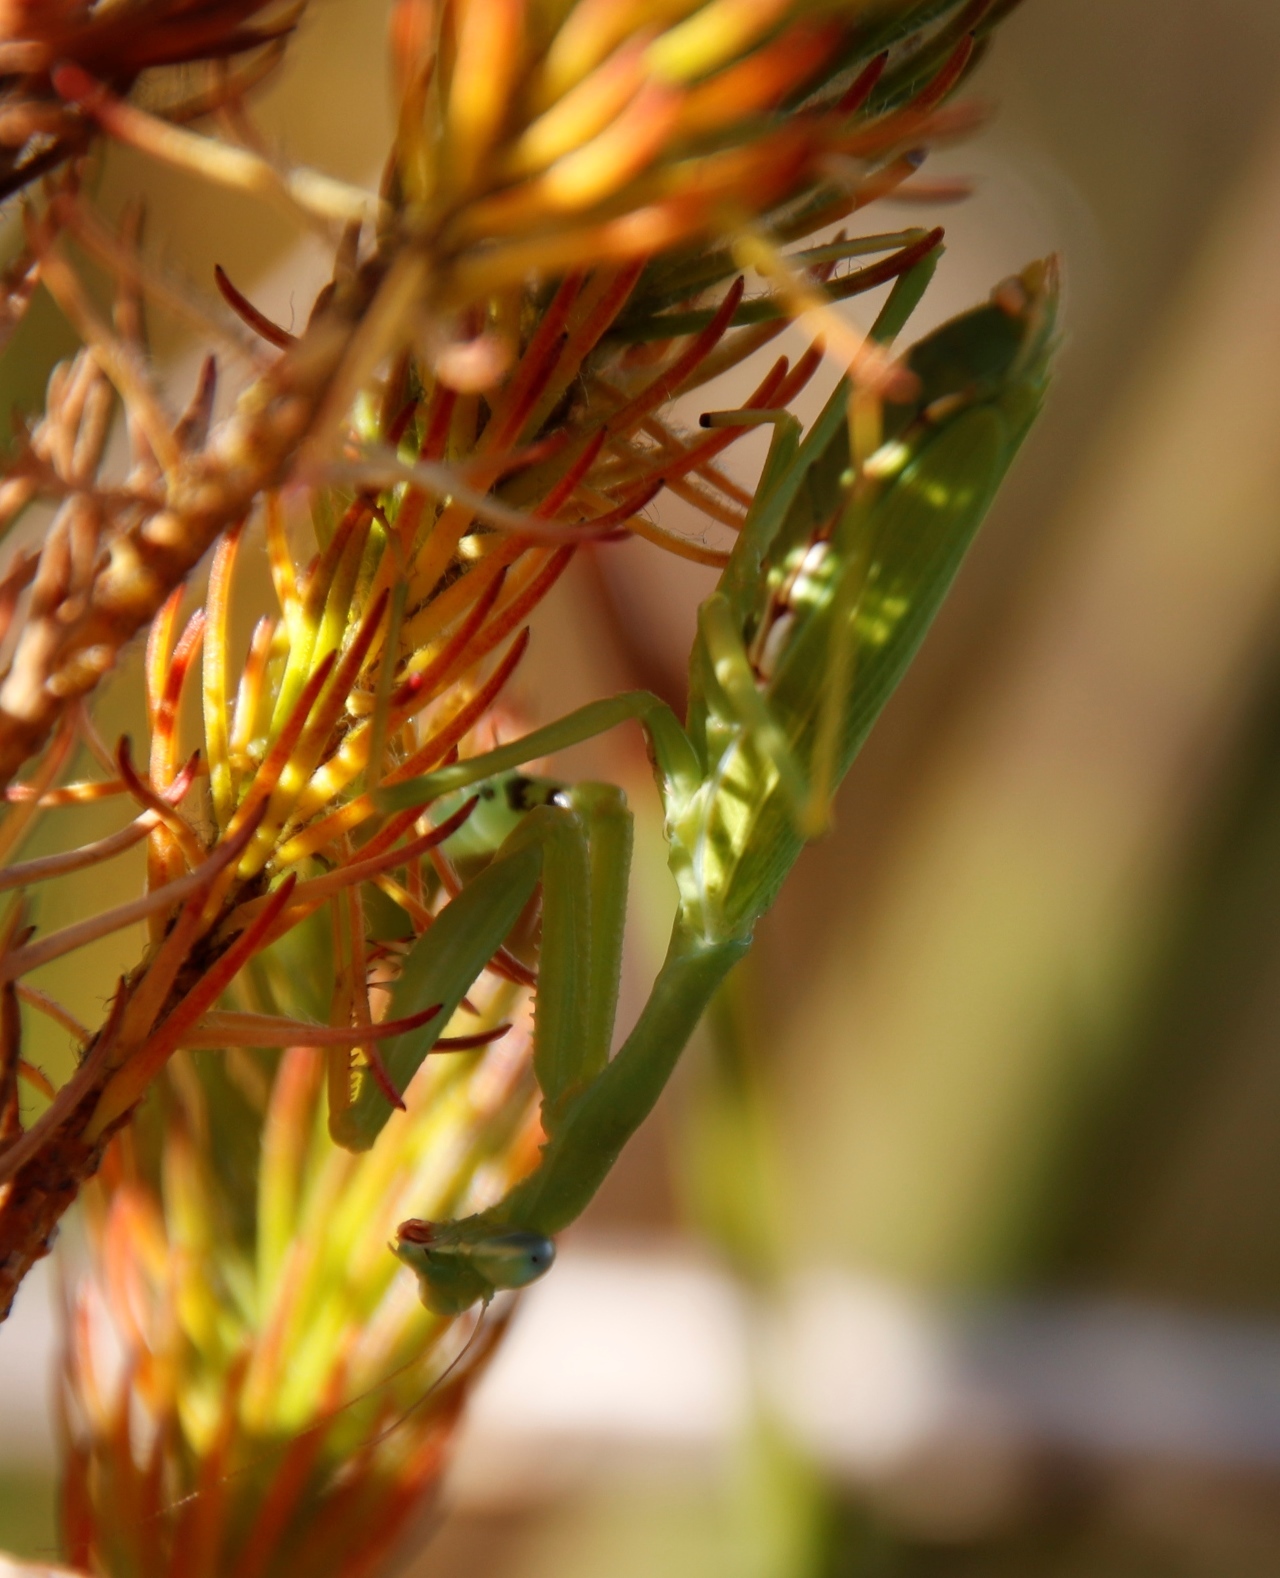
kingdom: Animalia
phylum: Arthropoda
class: Insecta
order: Mantodea
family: Miomantidae
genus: Miomantis
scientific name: Miomantis caffra
